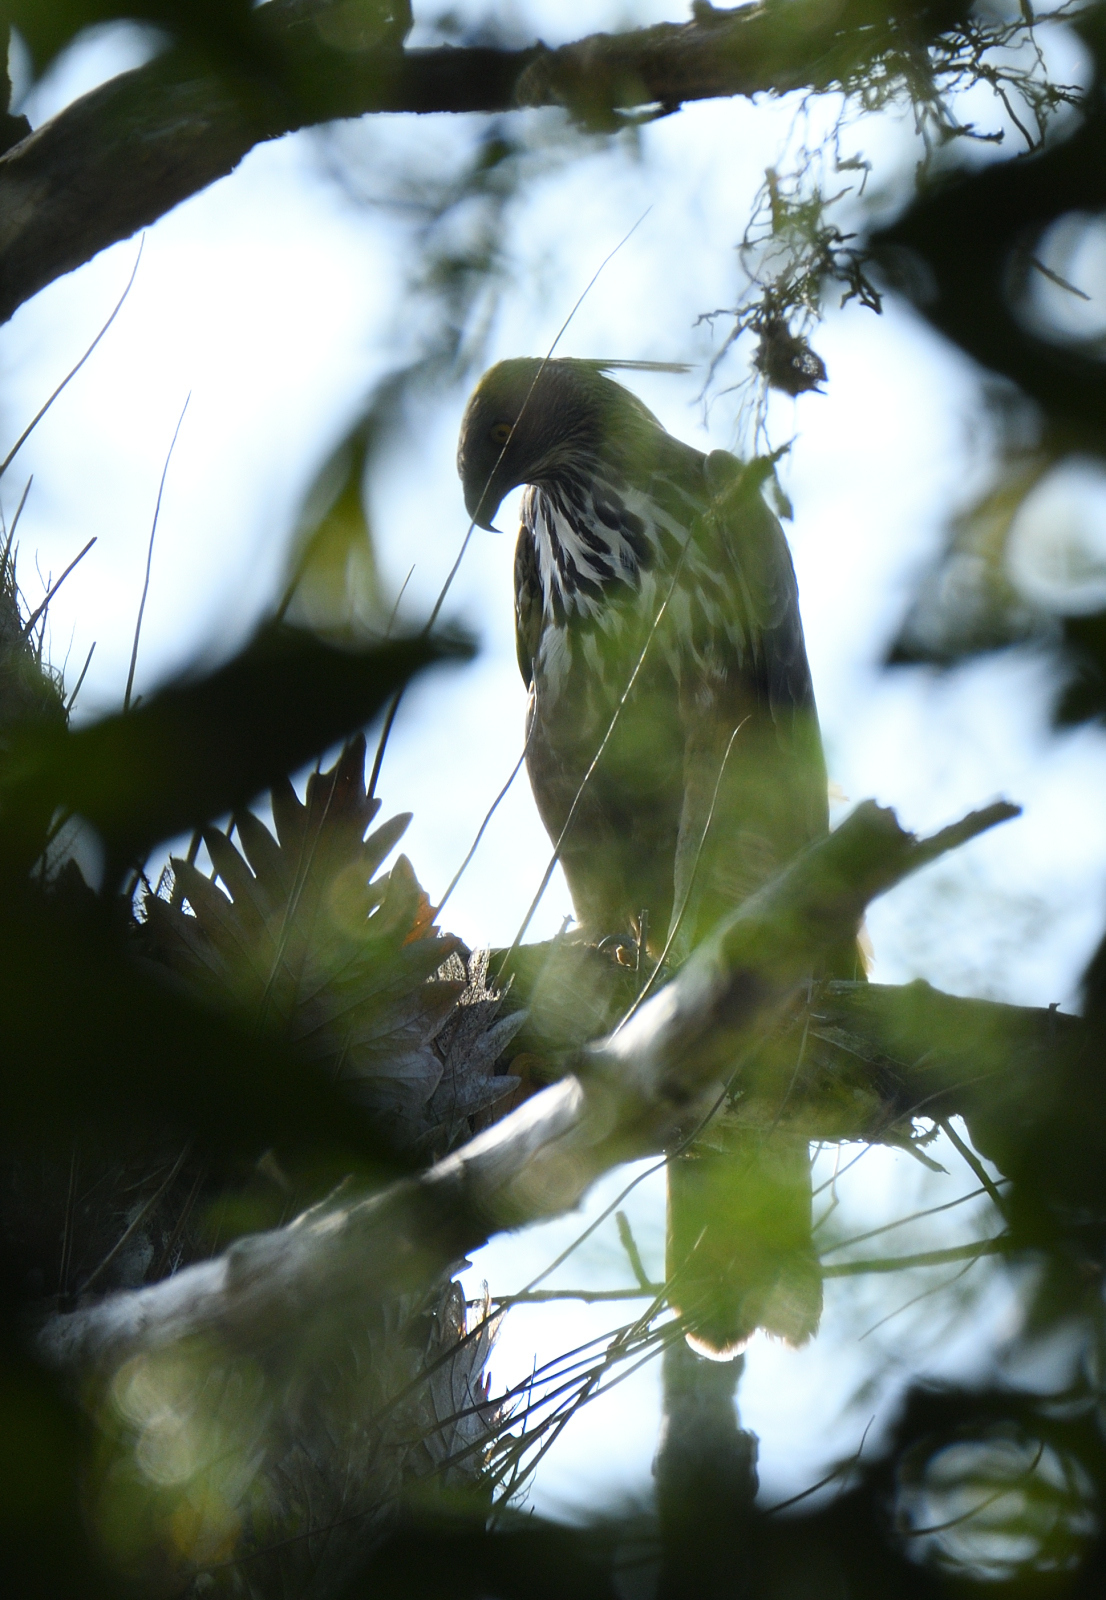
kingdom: Animalia
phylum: Chordata
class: Aves
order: Accipitriformes
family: Accipitridae
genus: Nisaetus
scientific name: Nisaetus cirrhatus
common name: Changeable hawk-eagle
